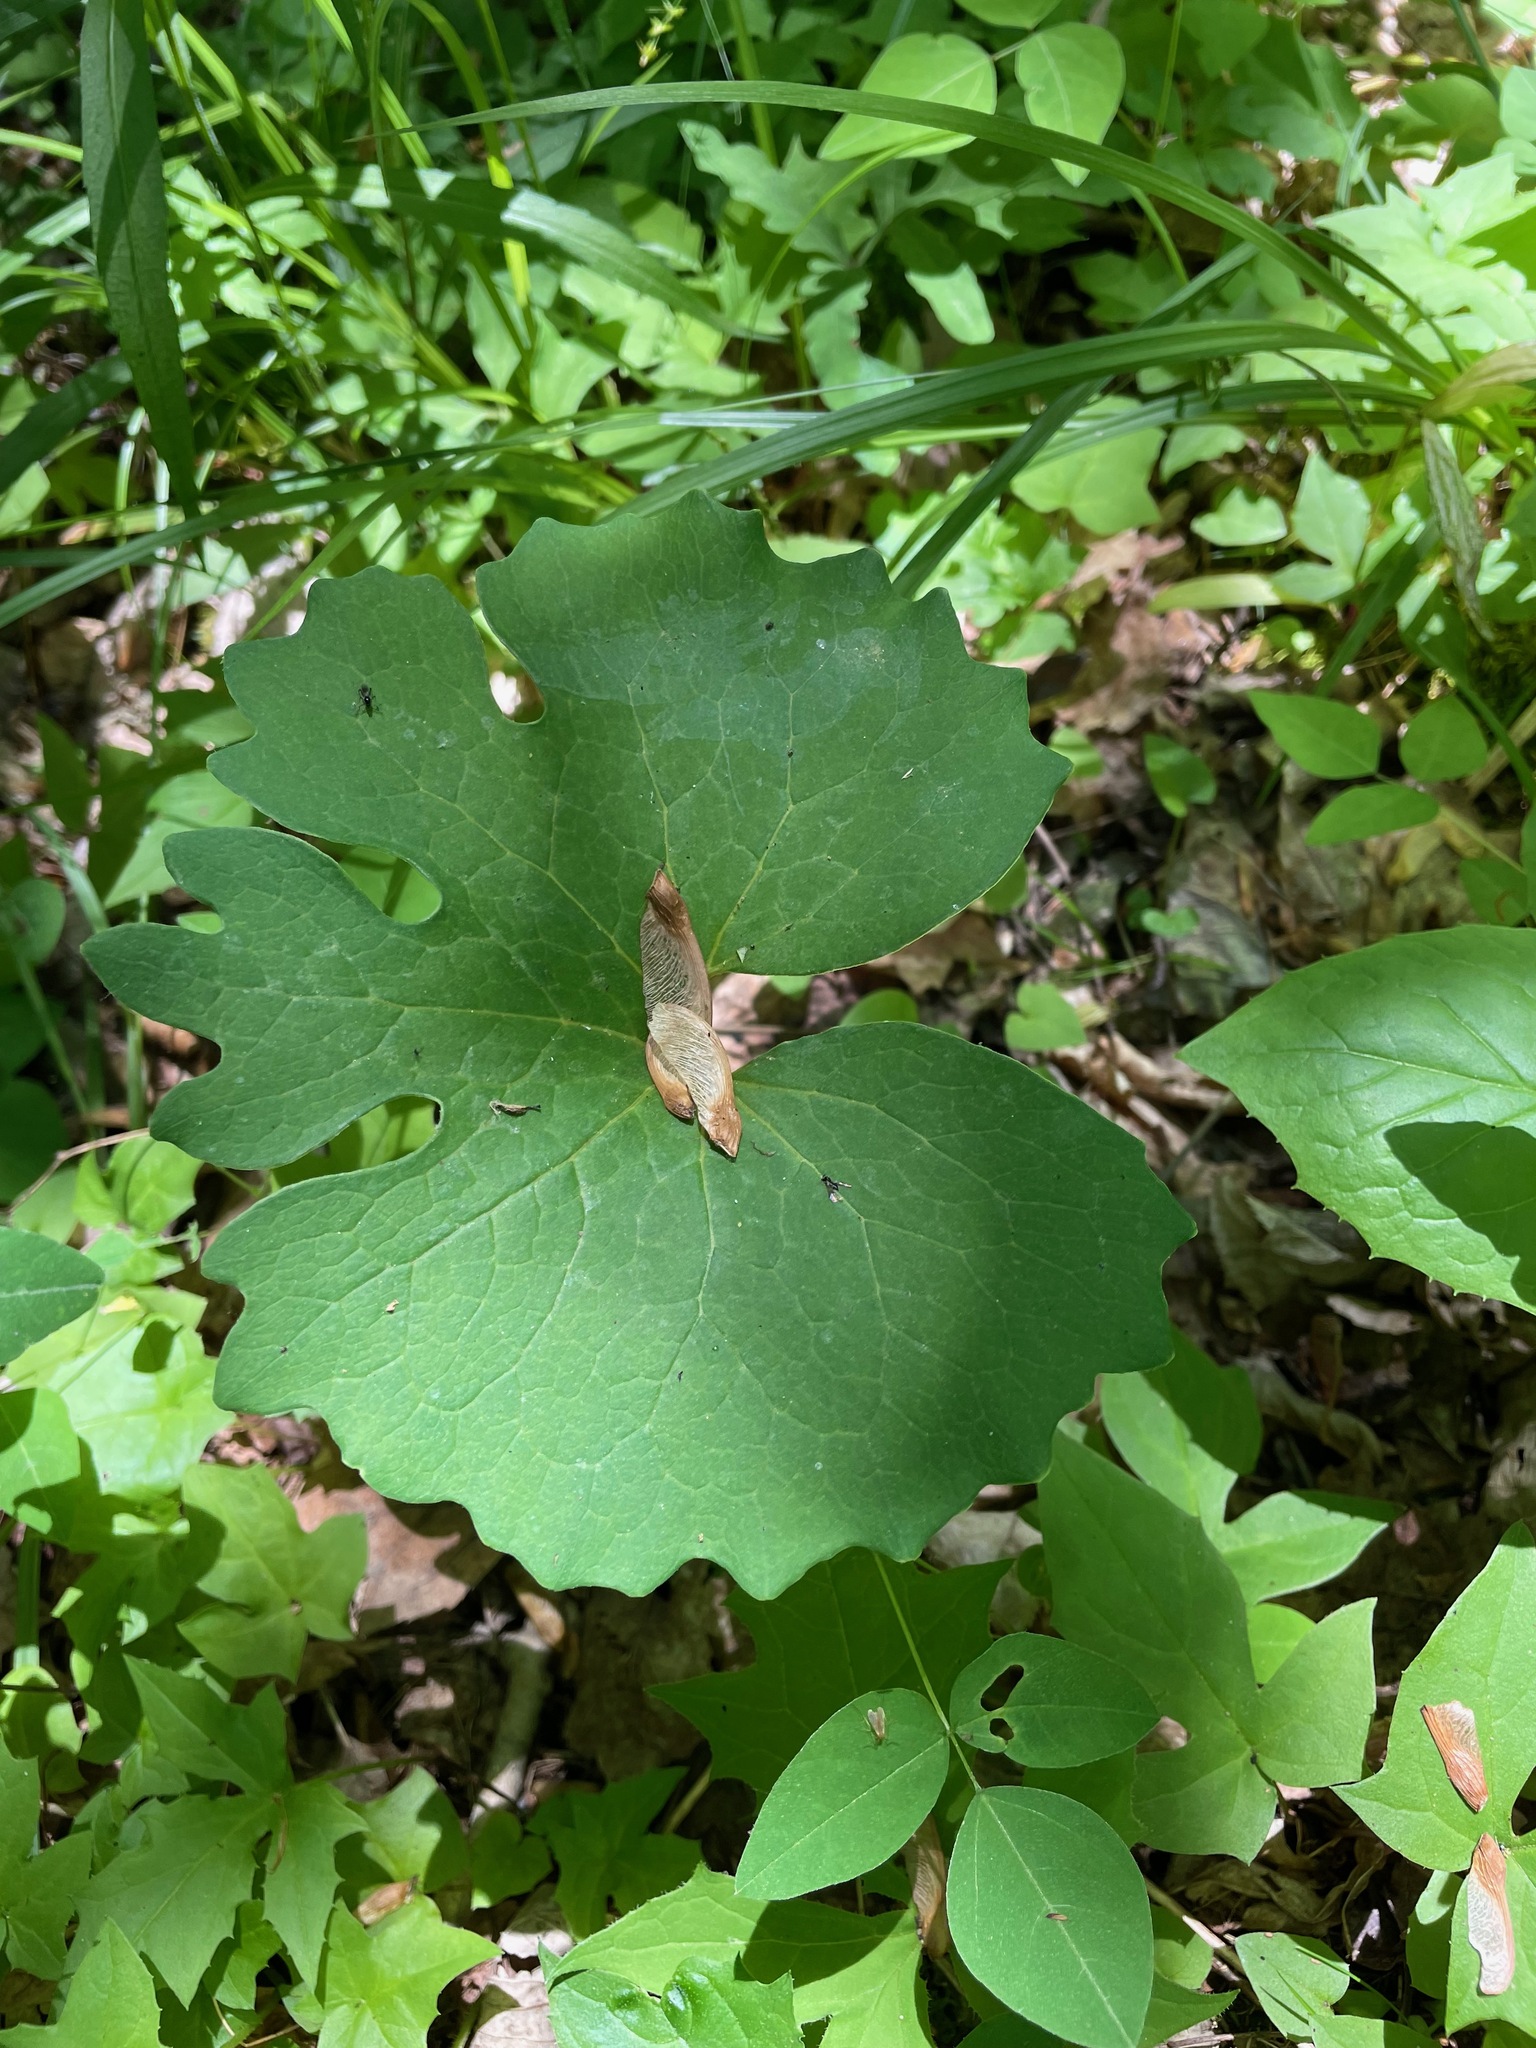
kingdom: Plantae
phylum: Tracheophyta
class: Magnoliopsida
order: Ranunculales
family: Papaveraceae
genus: Sanguinaria
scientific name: Sanguinaria canadensis
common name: Bloodroot
